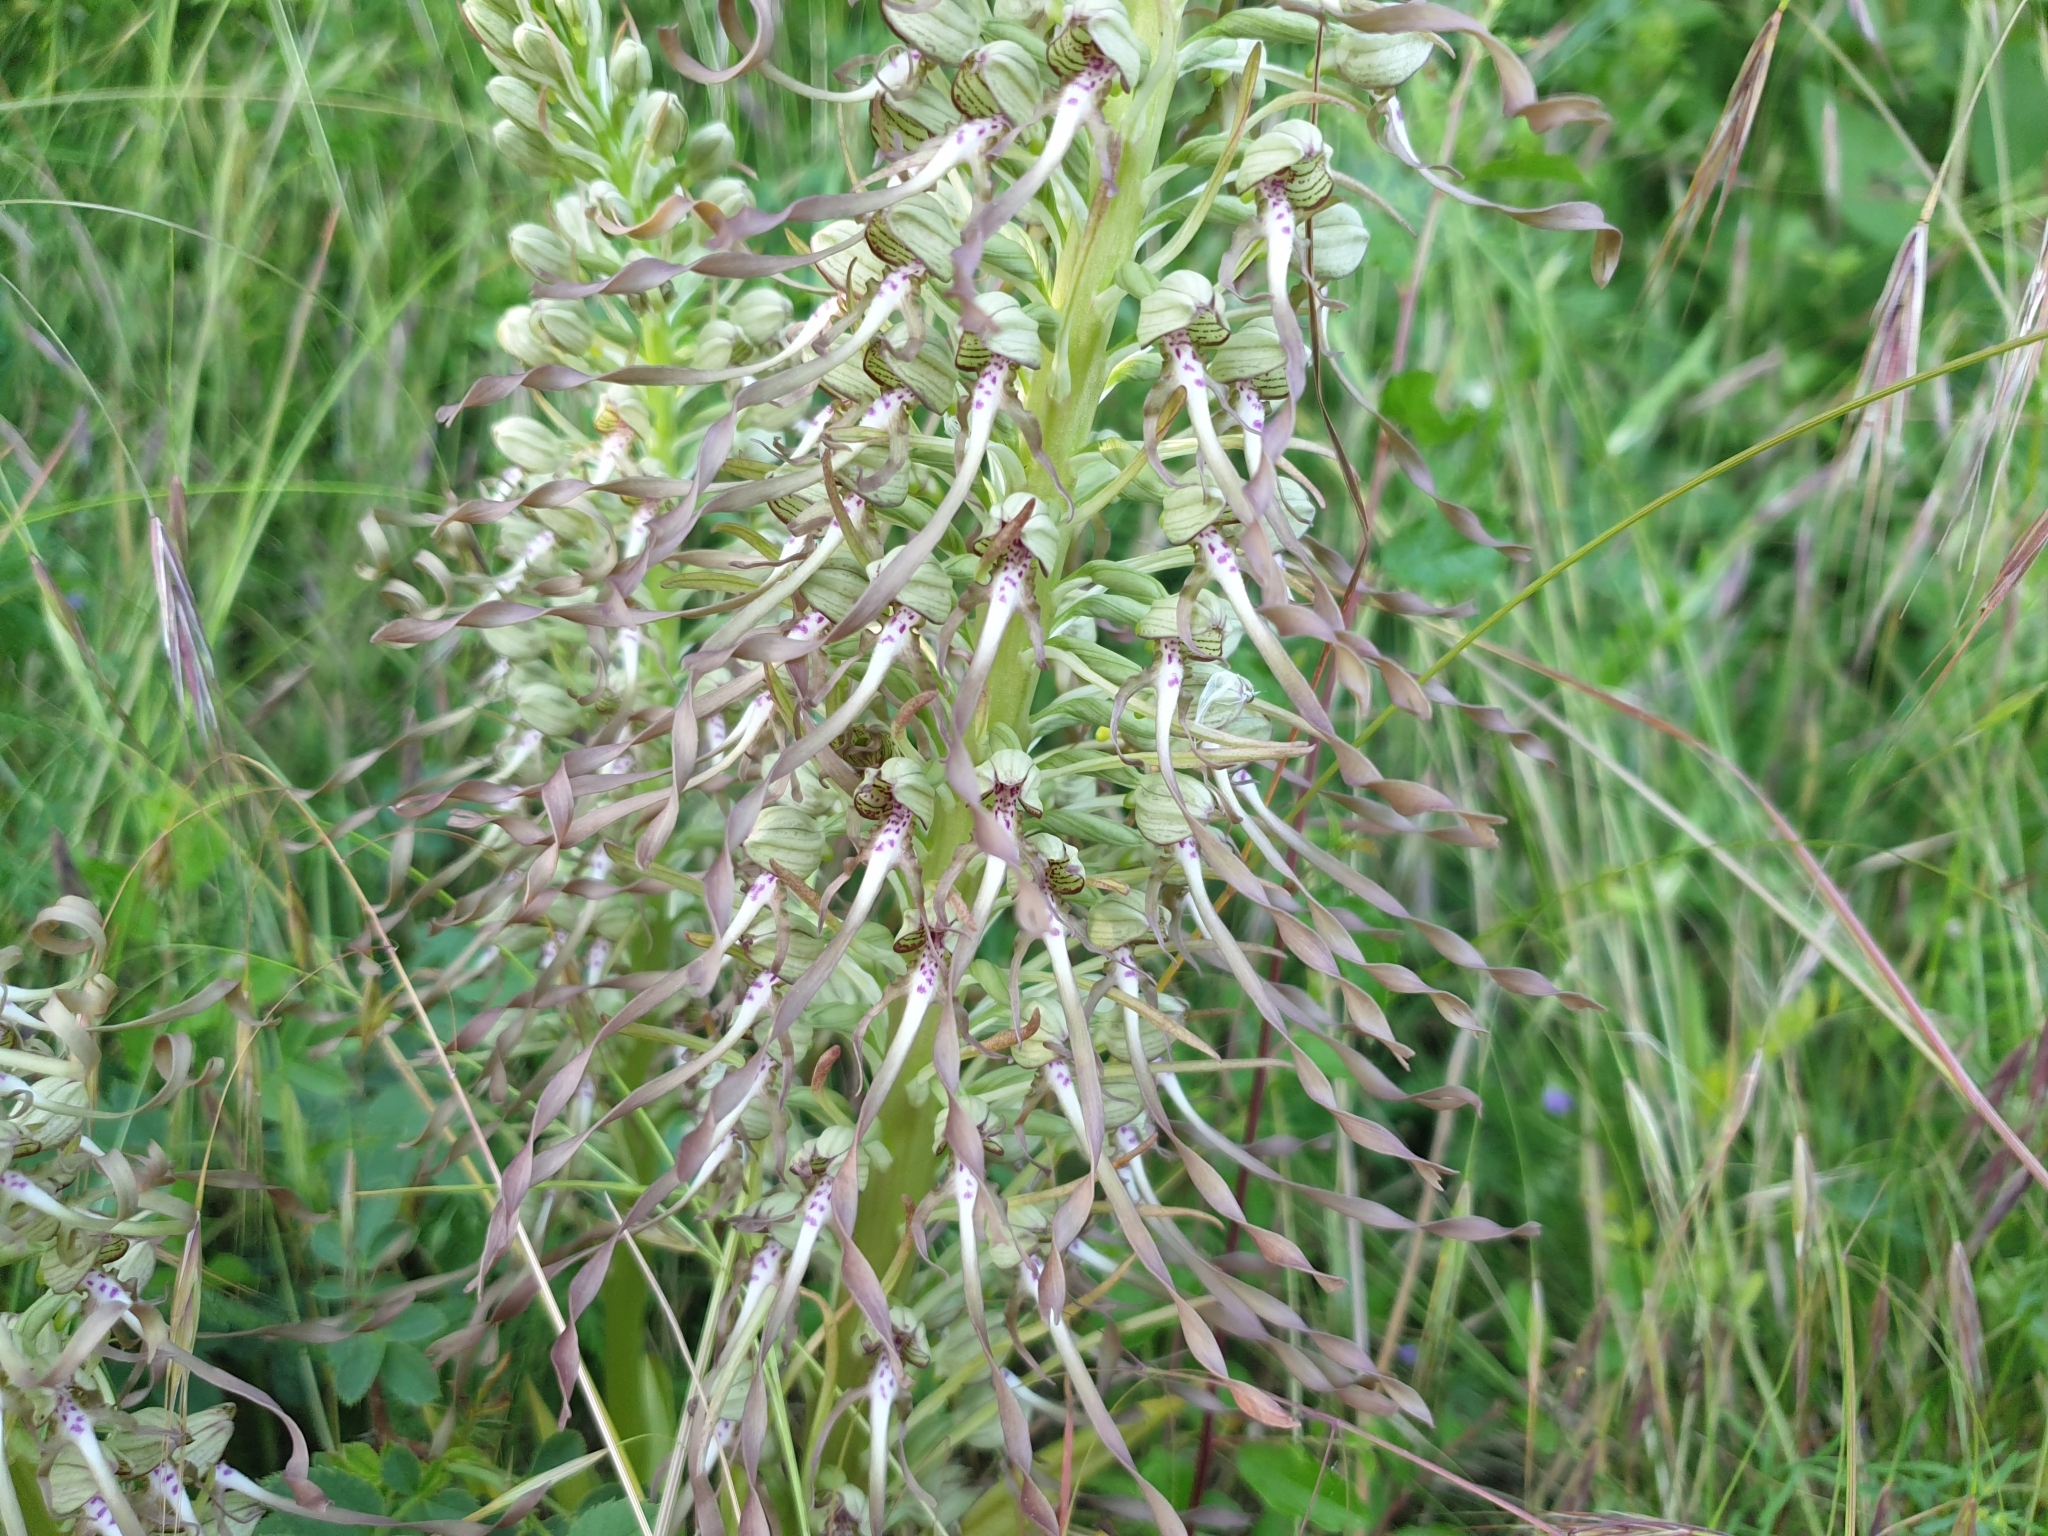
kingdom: Plantae
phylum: Tracheophyta
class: Liliopsida
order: Asparagales
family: Orchidaceae
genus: Himantoglossum
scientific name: Himantoglossum hircinum
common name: Lizard orchid
